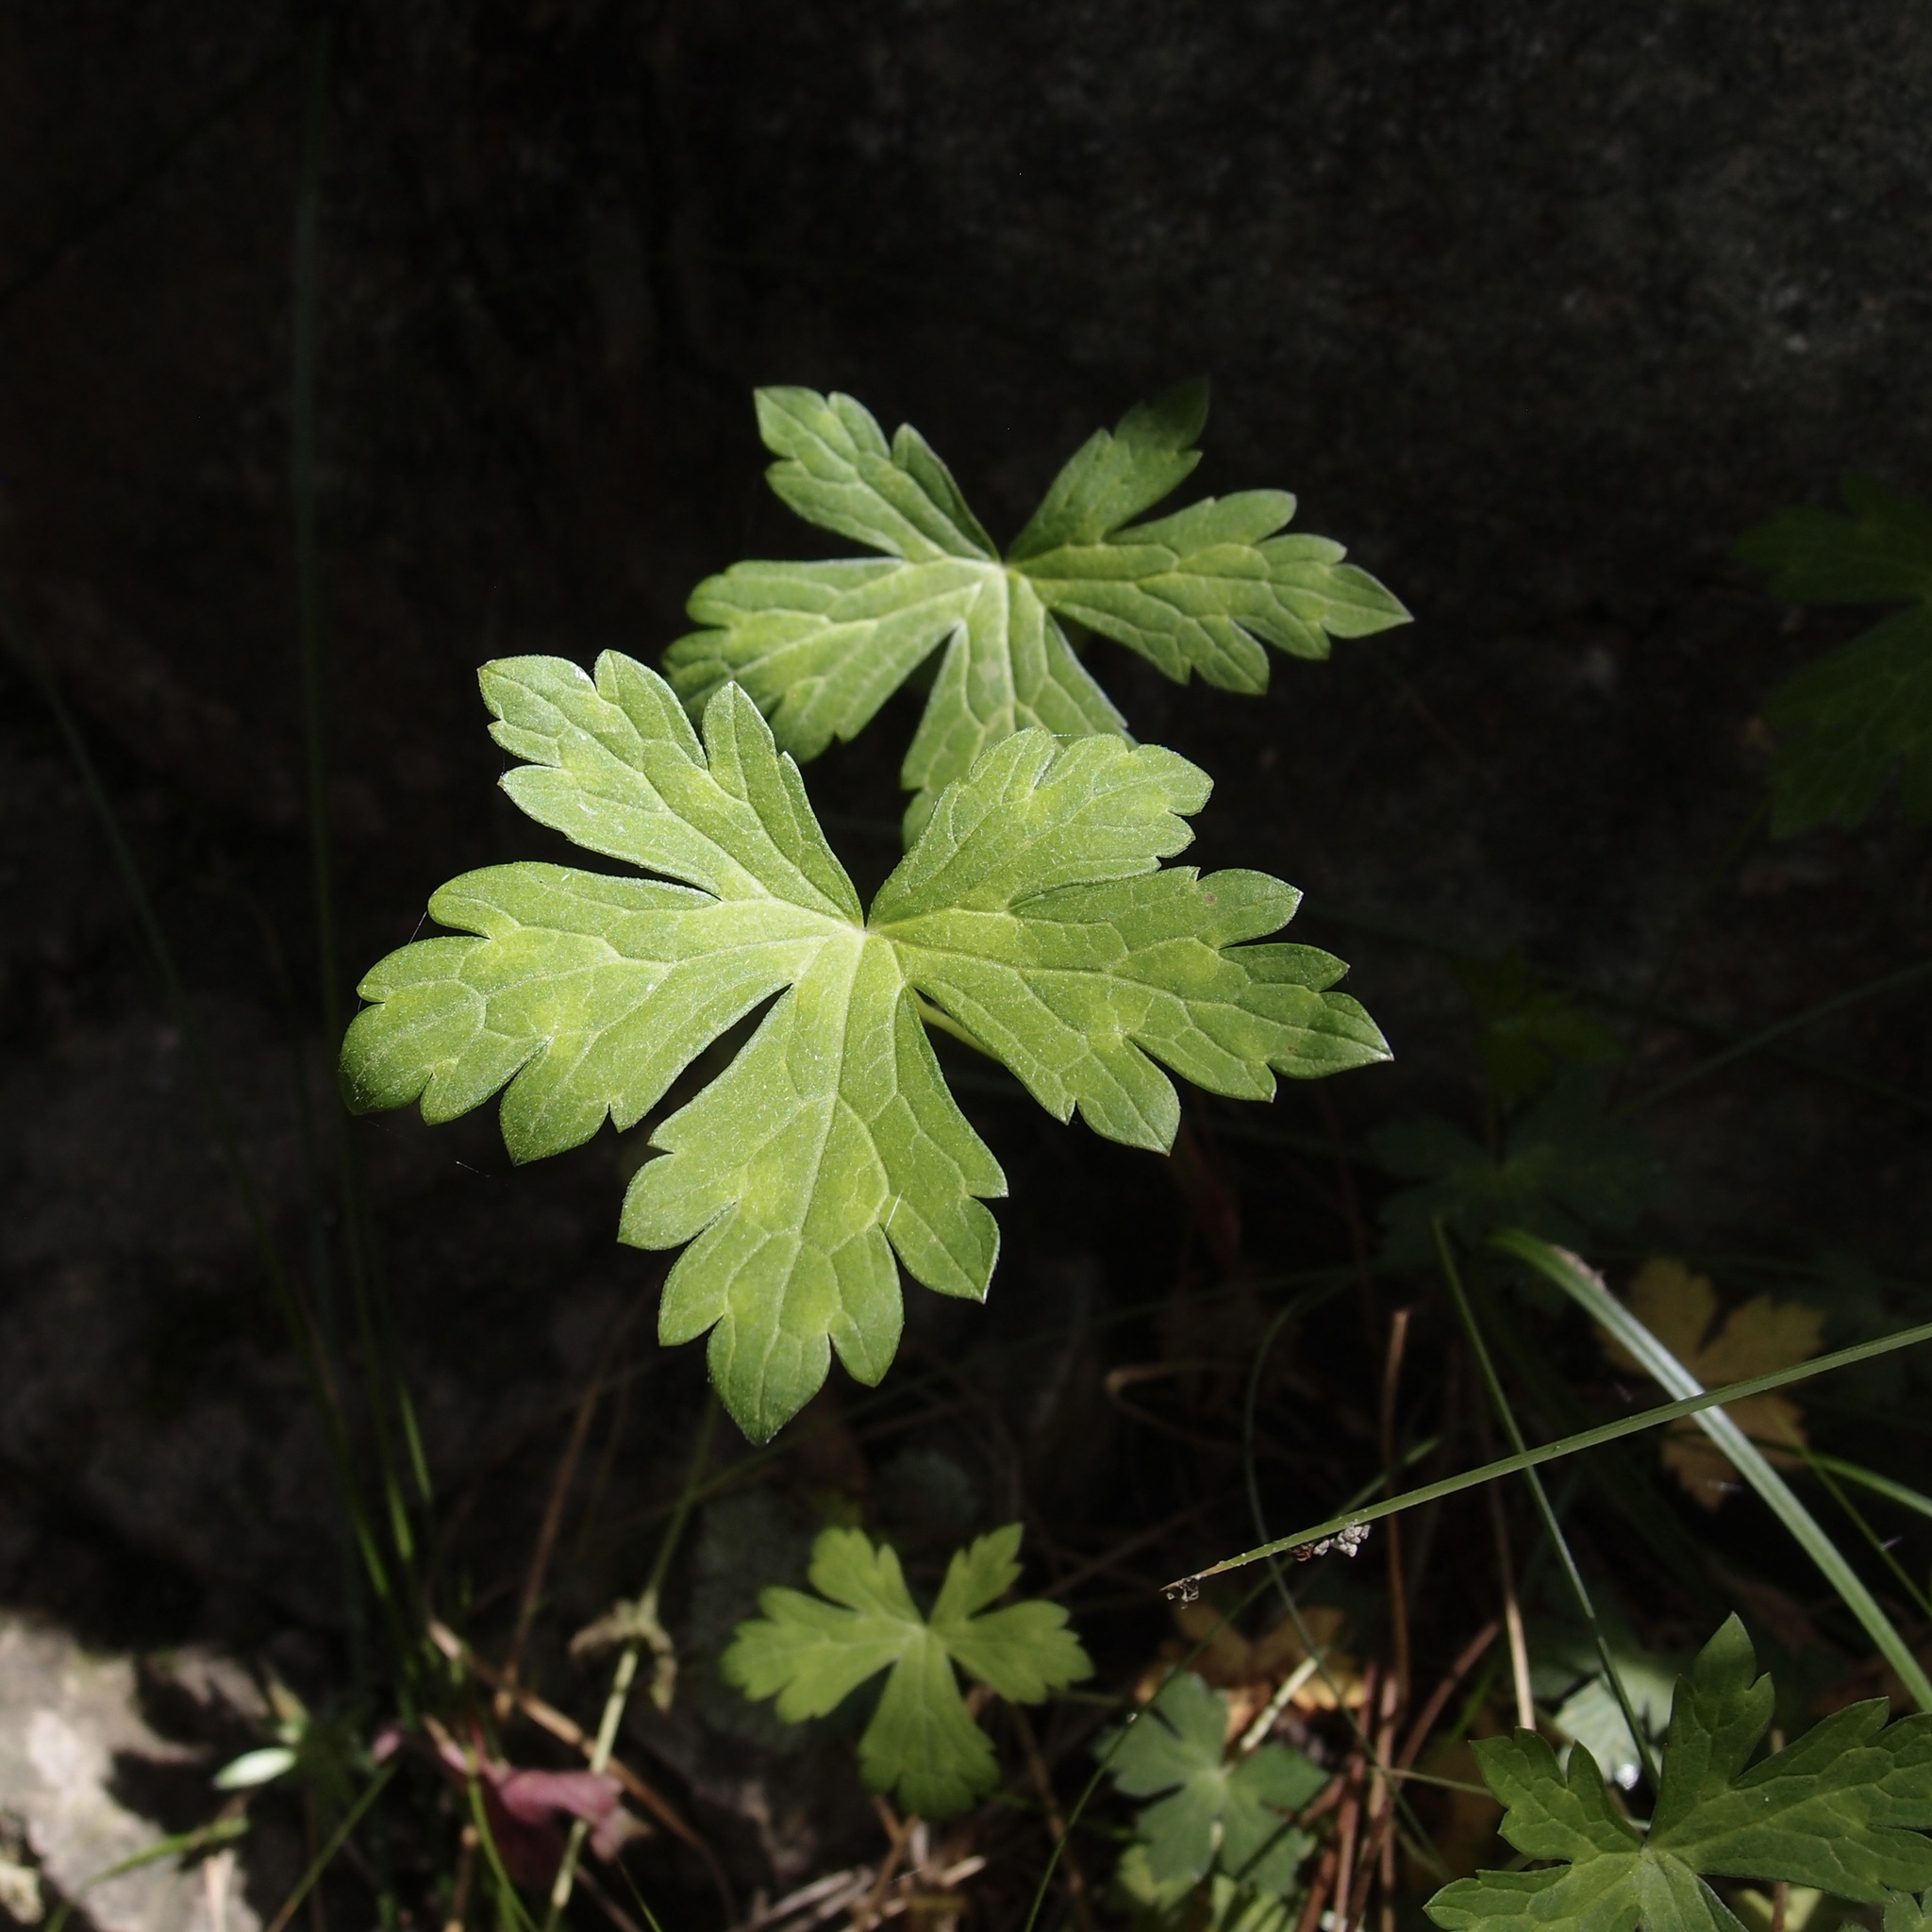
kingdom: Plantae
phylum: Tracheophyta
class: Magnoliopsida
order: Geraniales
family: Geraniaceae
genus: Geranium
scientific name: Geranium richardsonii
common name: Richardson's crane's-bill
